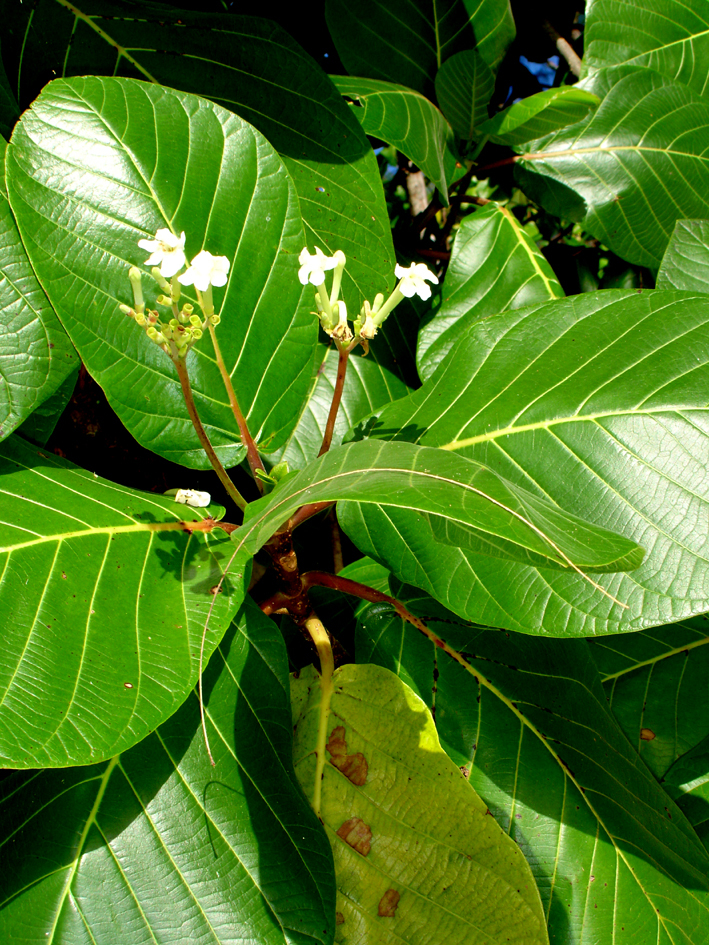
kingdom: Plantae
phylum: Tracheophyta
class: Magnoliopsida
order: Gentianales
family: Rubiaceae
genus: Guettarda
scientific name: Guettarda speciosa
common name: Sea randa
